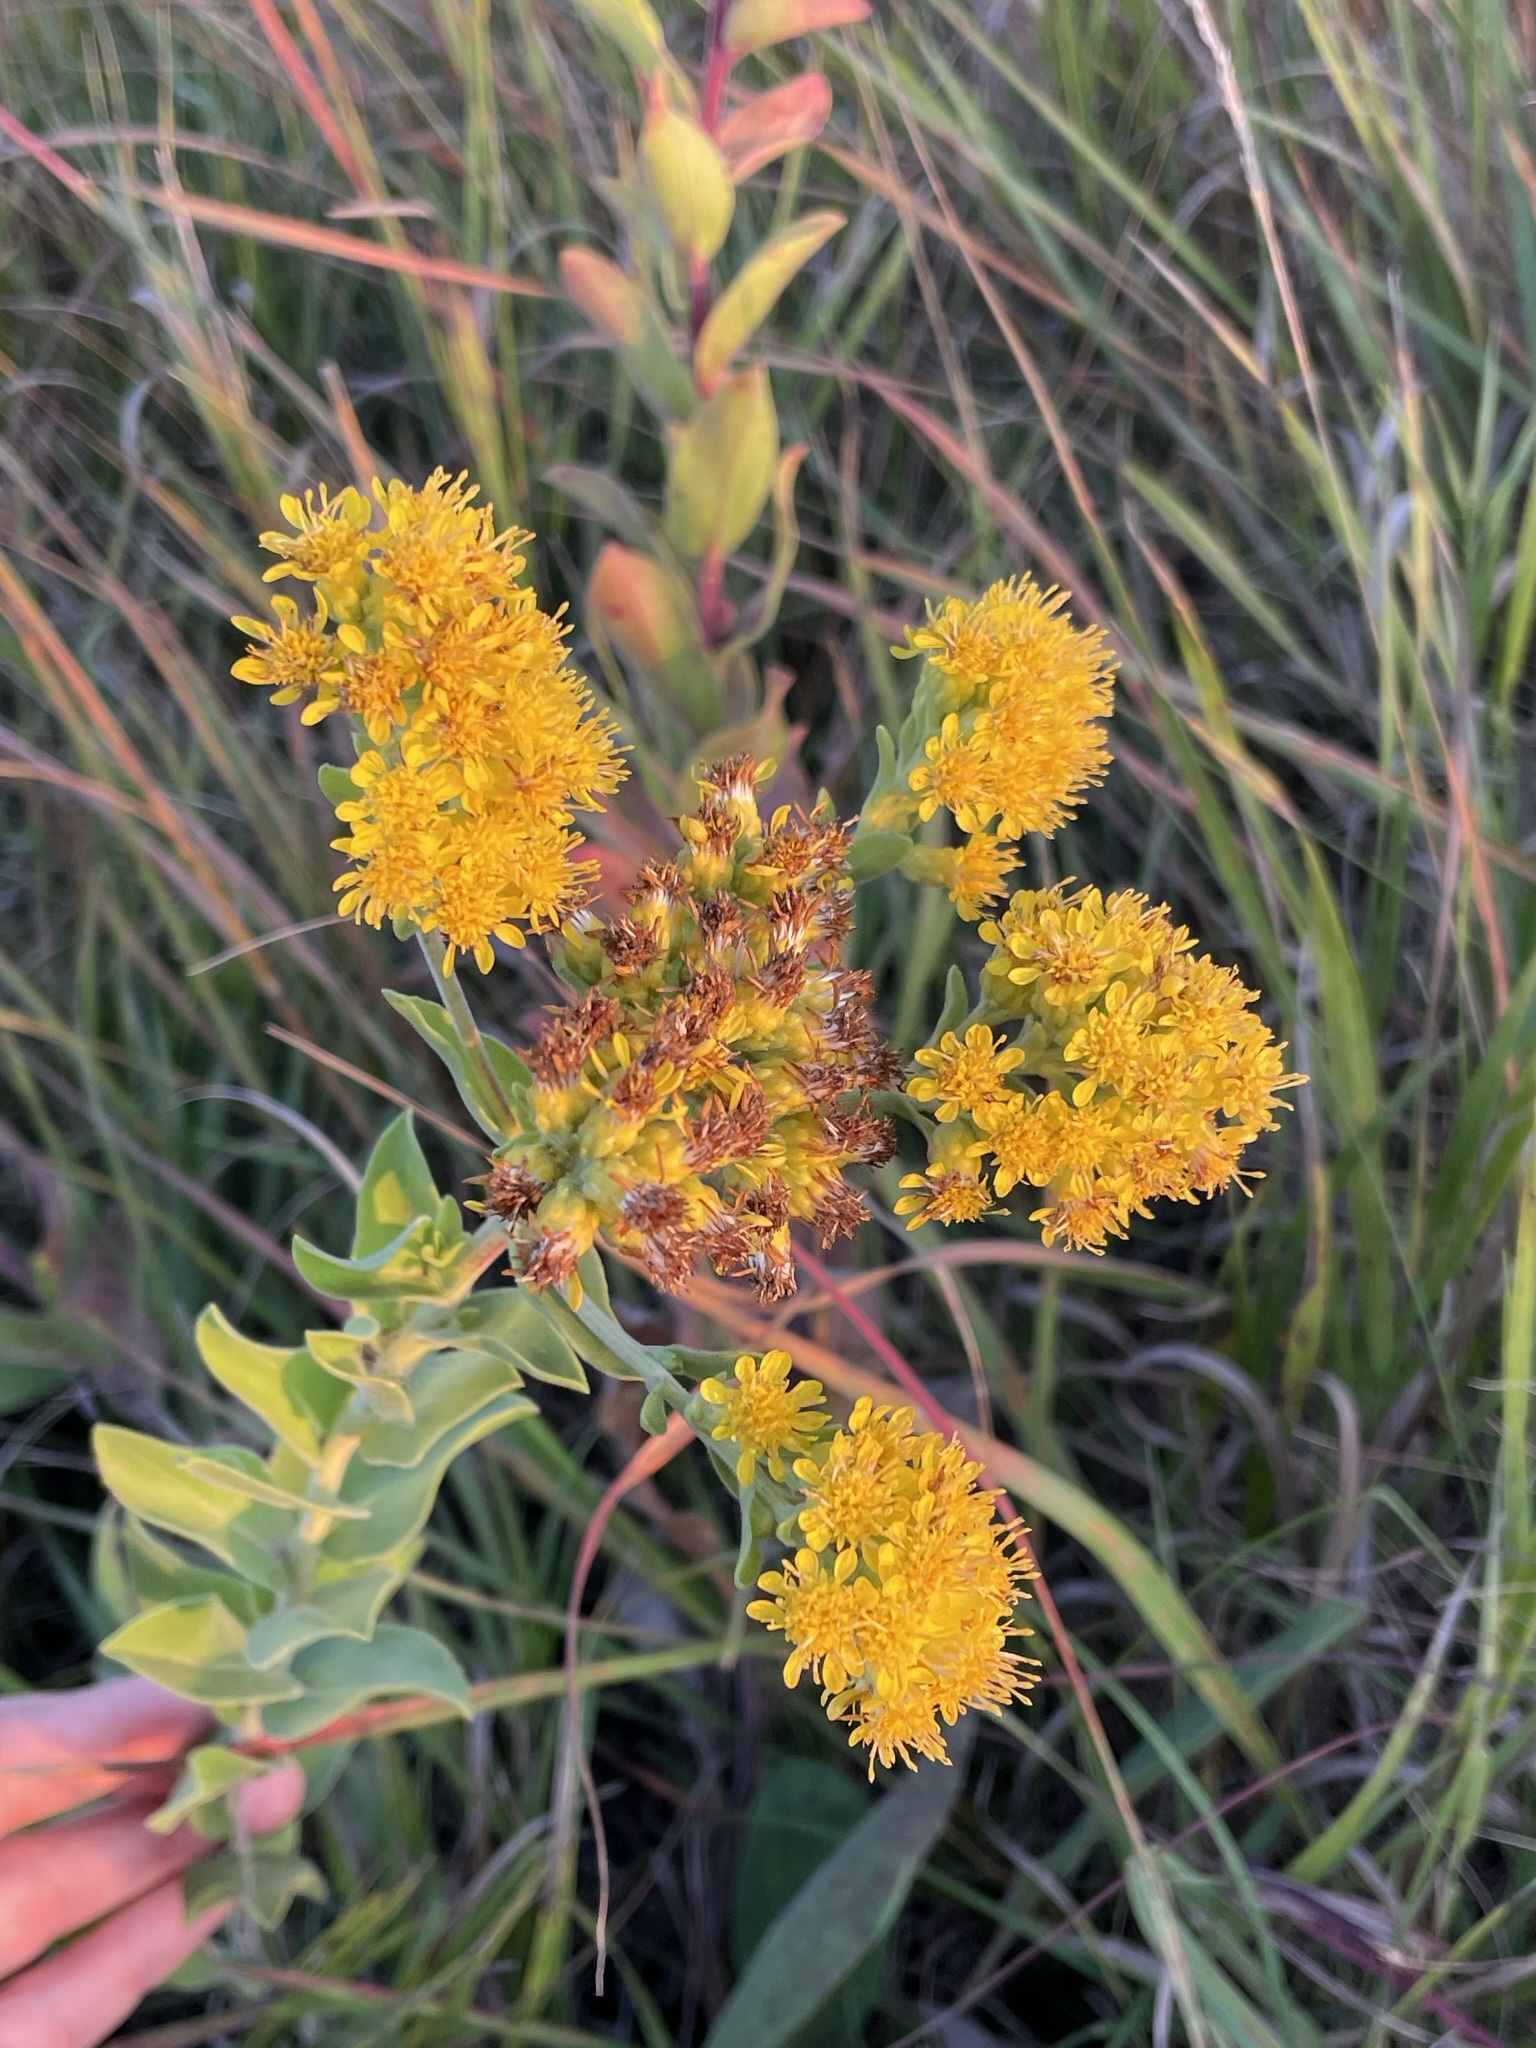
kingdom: Plantae
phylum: Tracheophyta
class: Magnoliopsida
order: Asterales
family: Asteraceae
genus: Solidago
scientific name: Solidago rigida
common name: Rigid goldenrod
